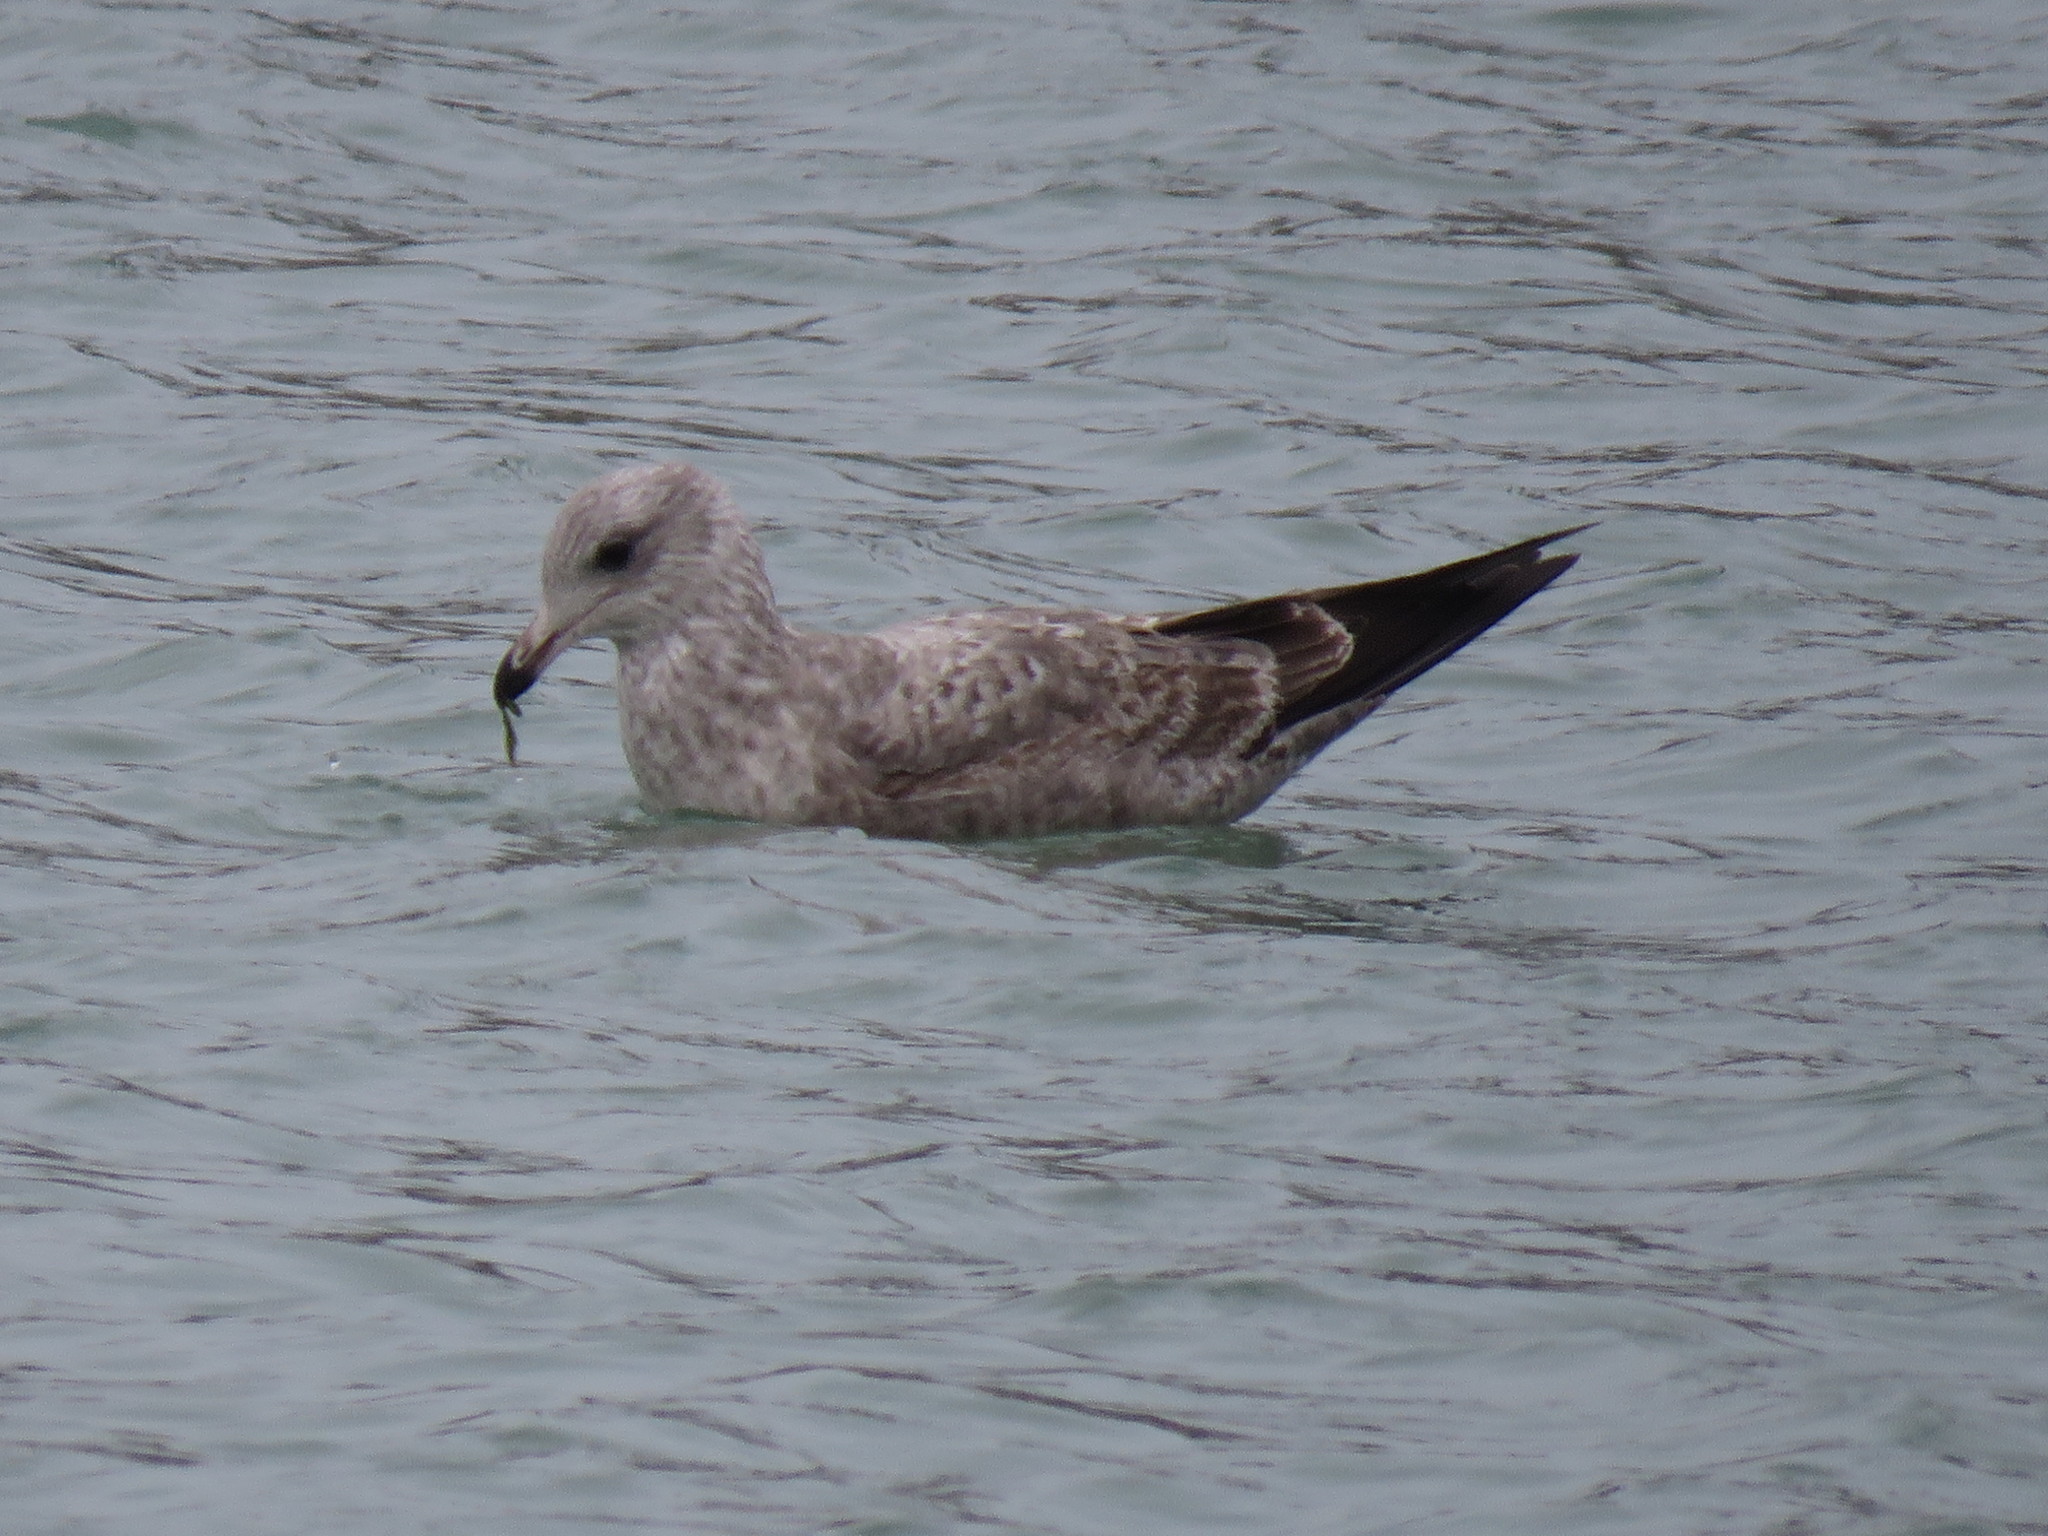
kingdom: Animalia
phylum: Chordata
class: Aves
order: Charadriiformes
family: Laridae
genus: Larus
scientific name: Larus argentatus
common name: Herring gull
